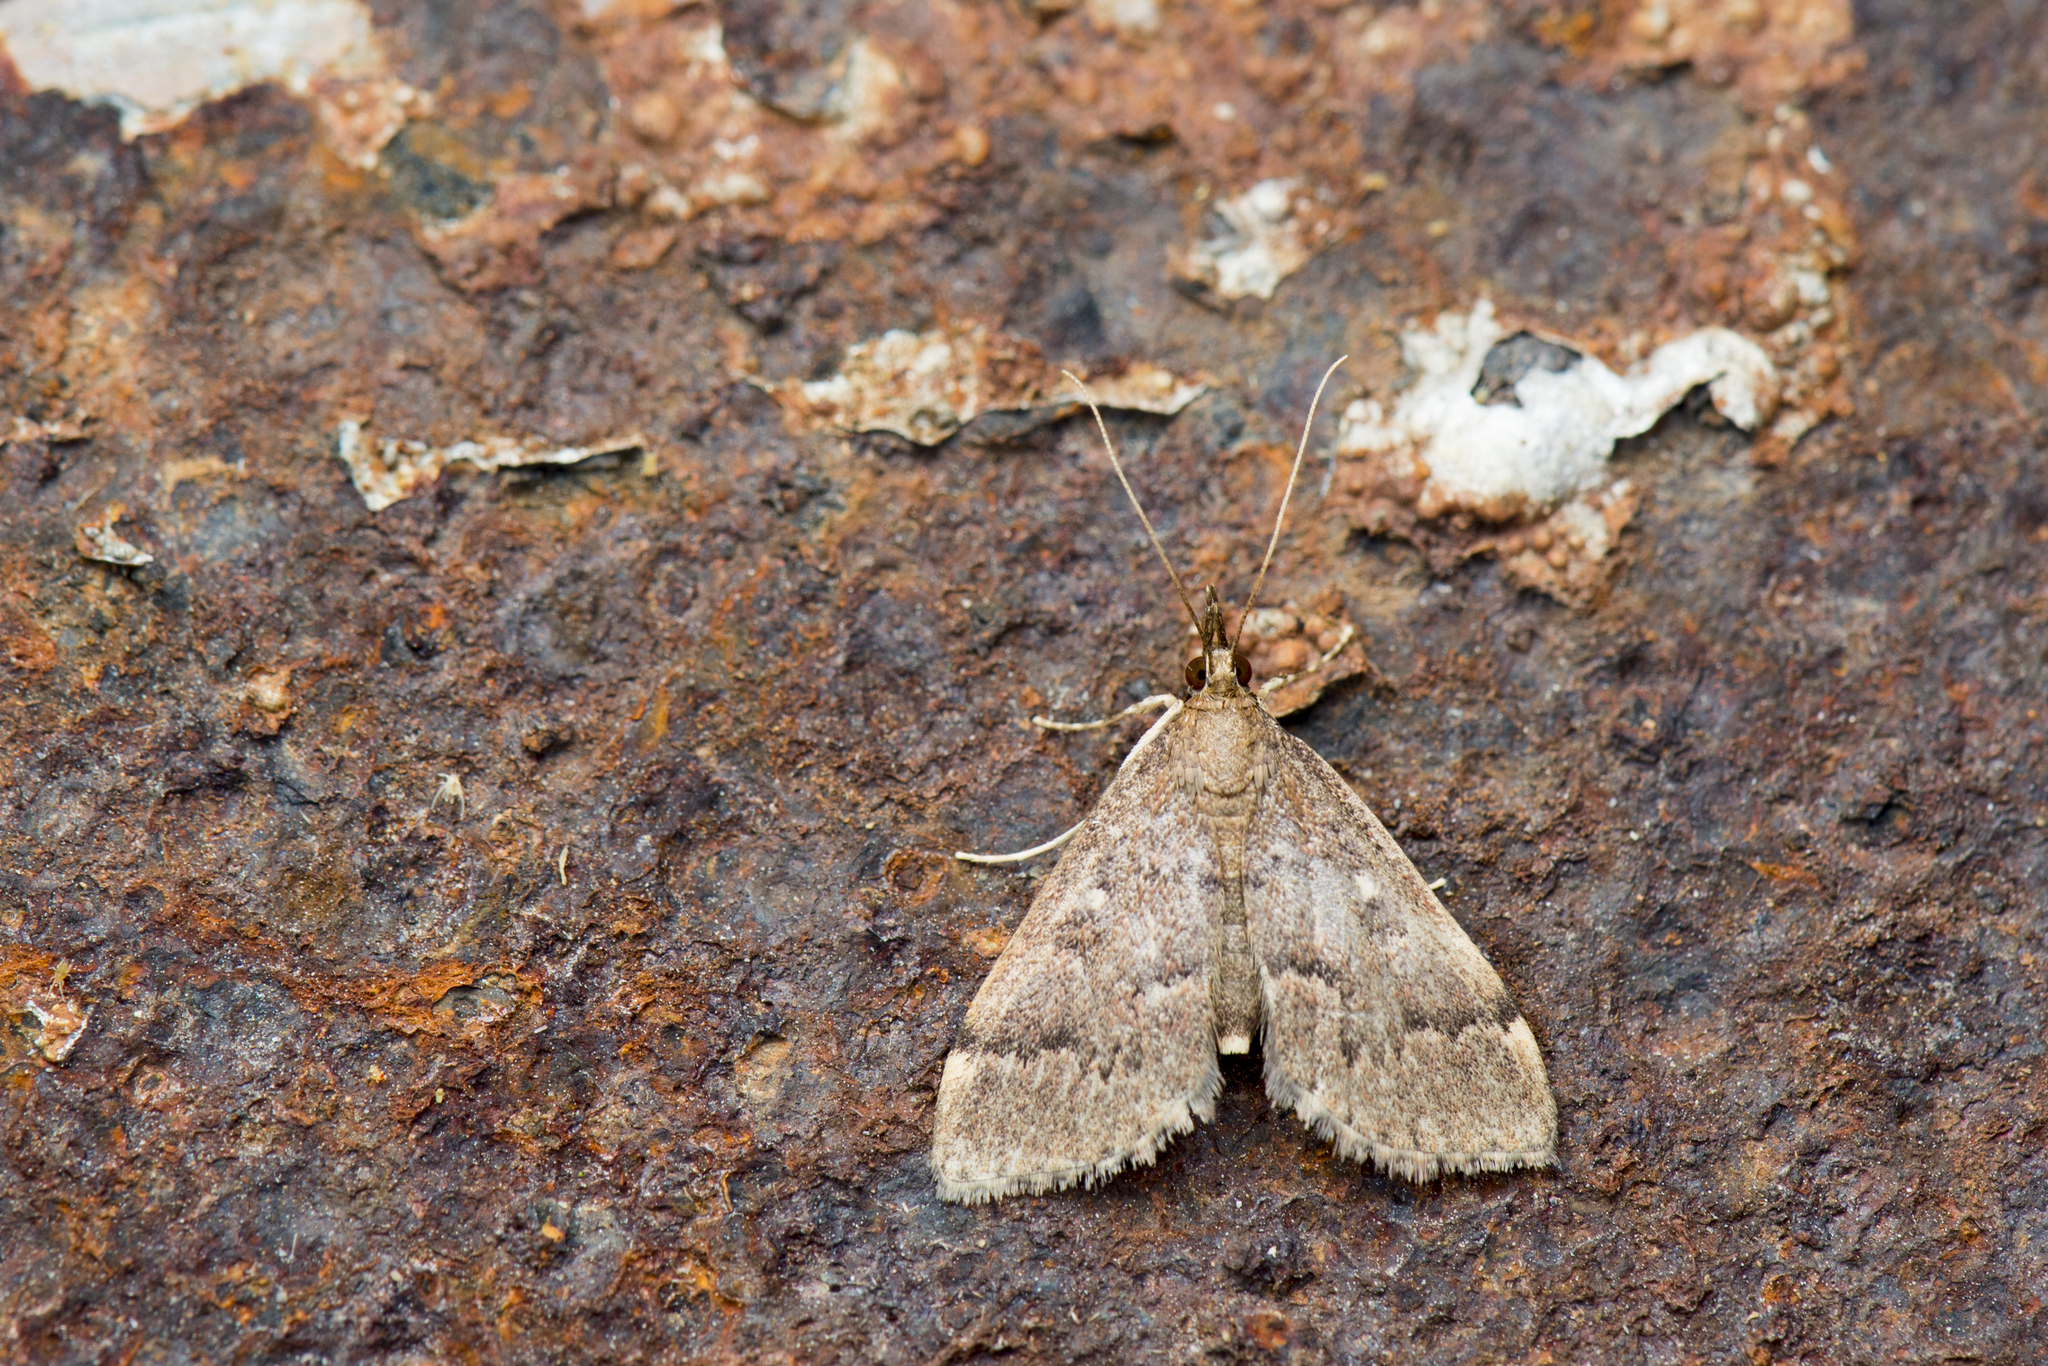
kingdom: Animalia
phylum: Arthropoda
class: Insecta
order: Lepidoptera
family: Crambidae
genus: Camptomastix
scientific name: Camptomastix hisbonalis
